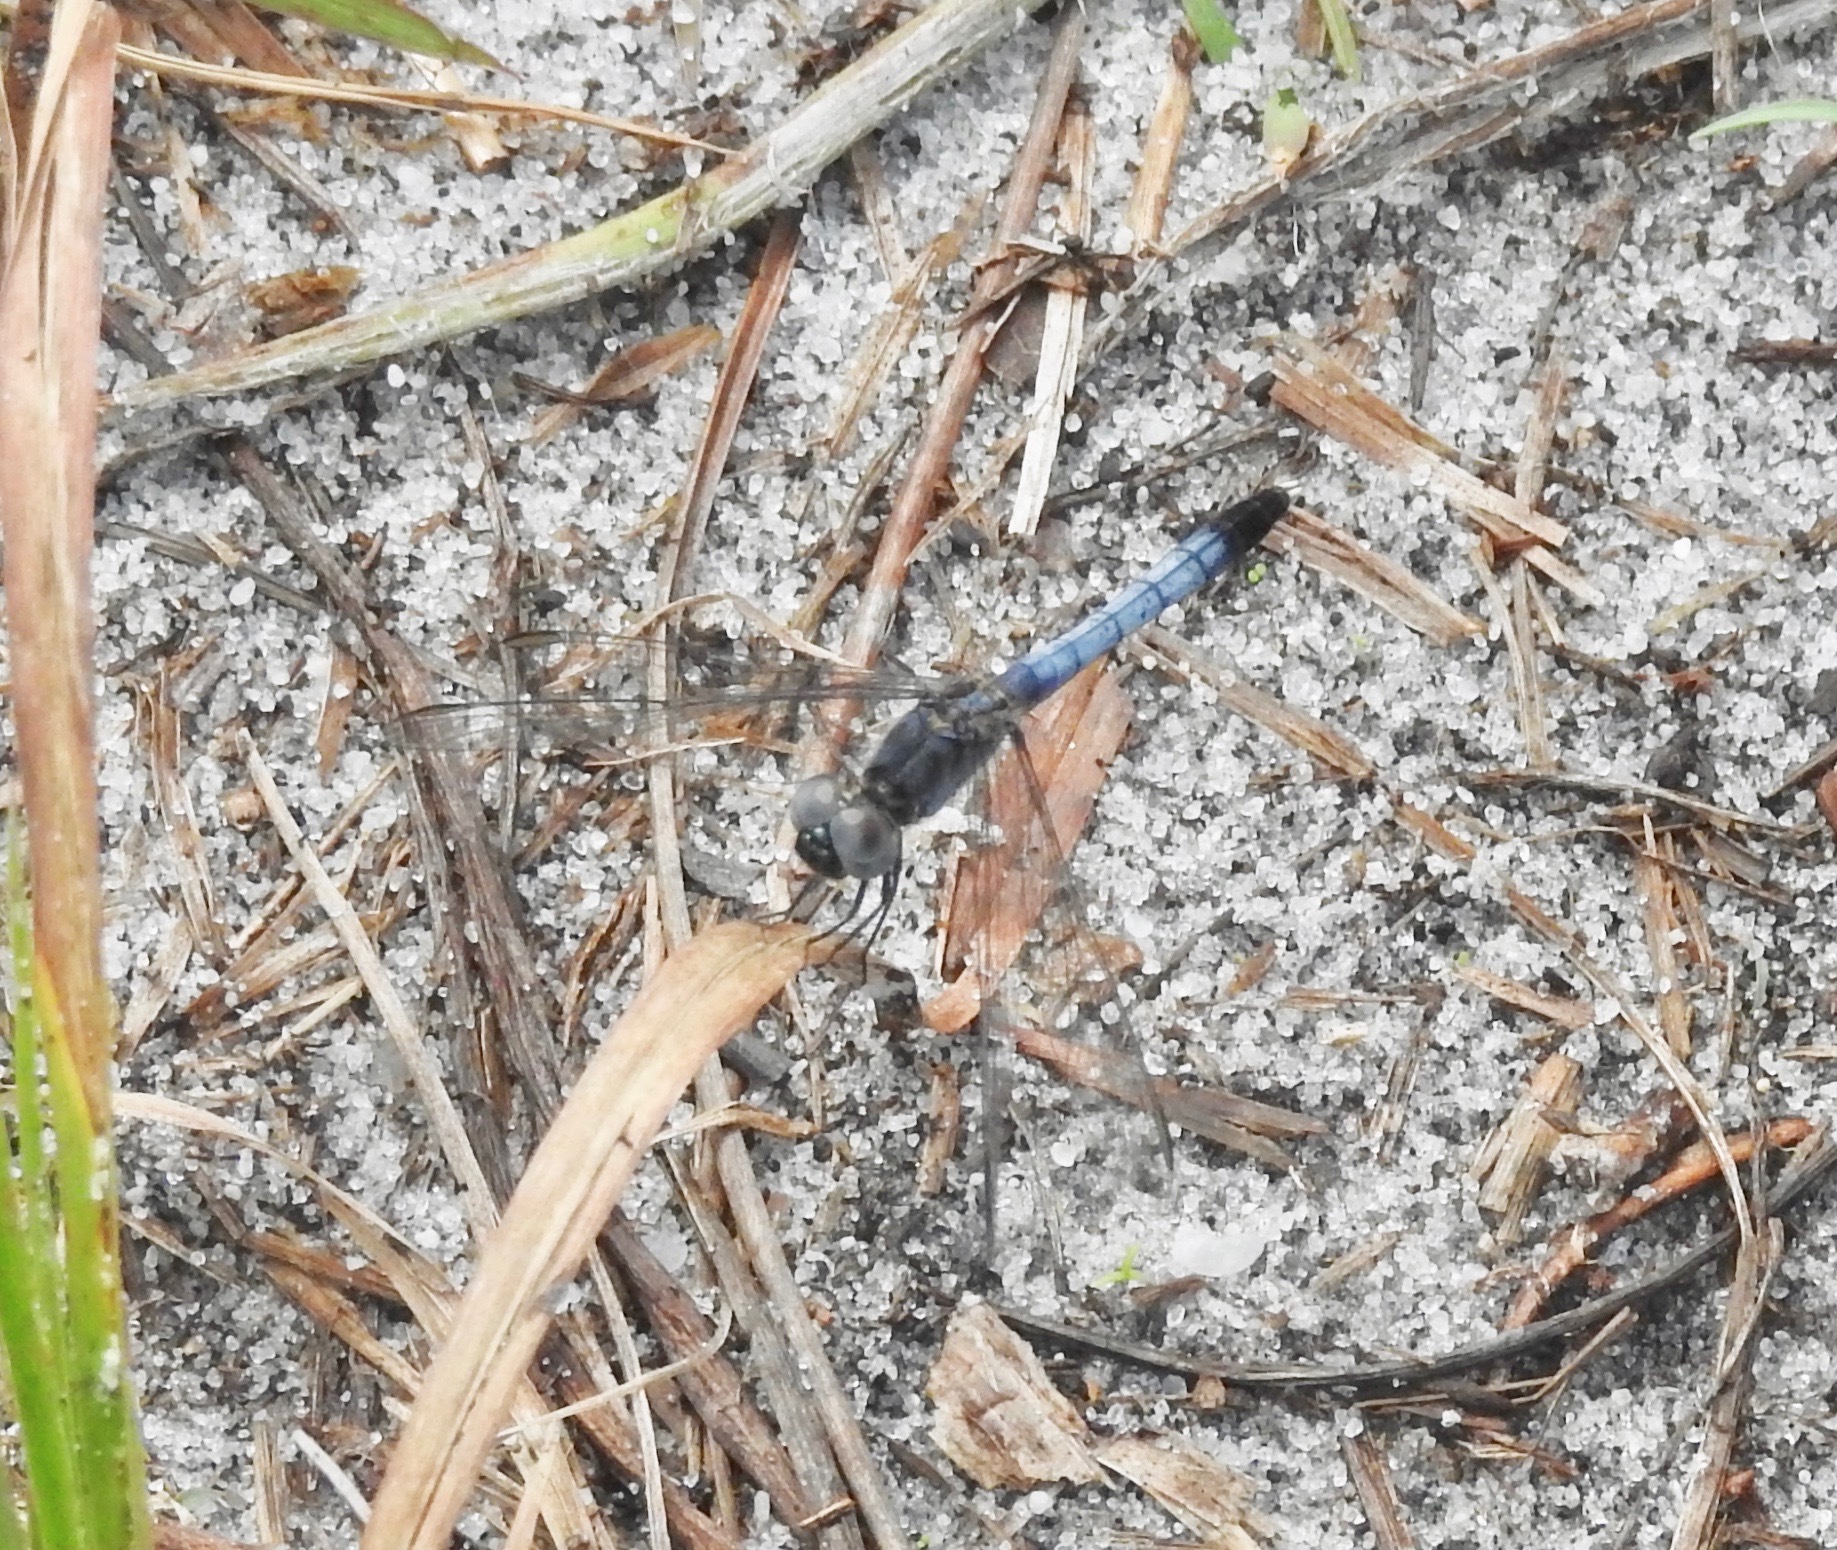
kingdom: Animalia
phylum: Arthropoda
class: Insecta
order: Odonata
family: Libellulidae
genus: Erythrodiplax
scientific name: Erythrodiplax minuscula
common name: Little blue dragonlet
